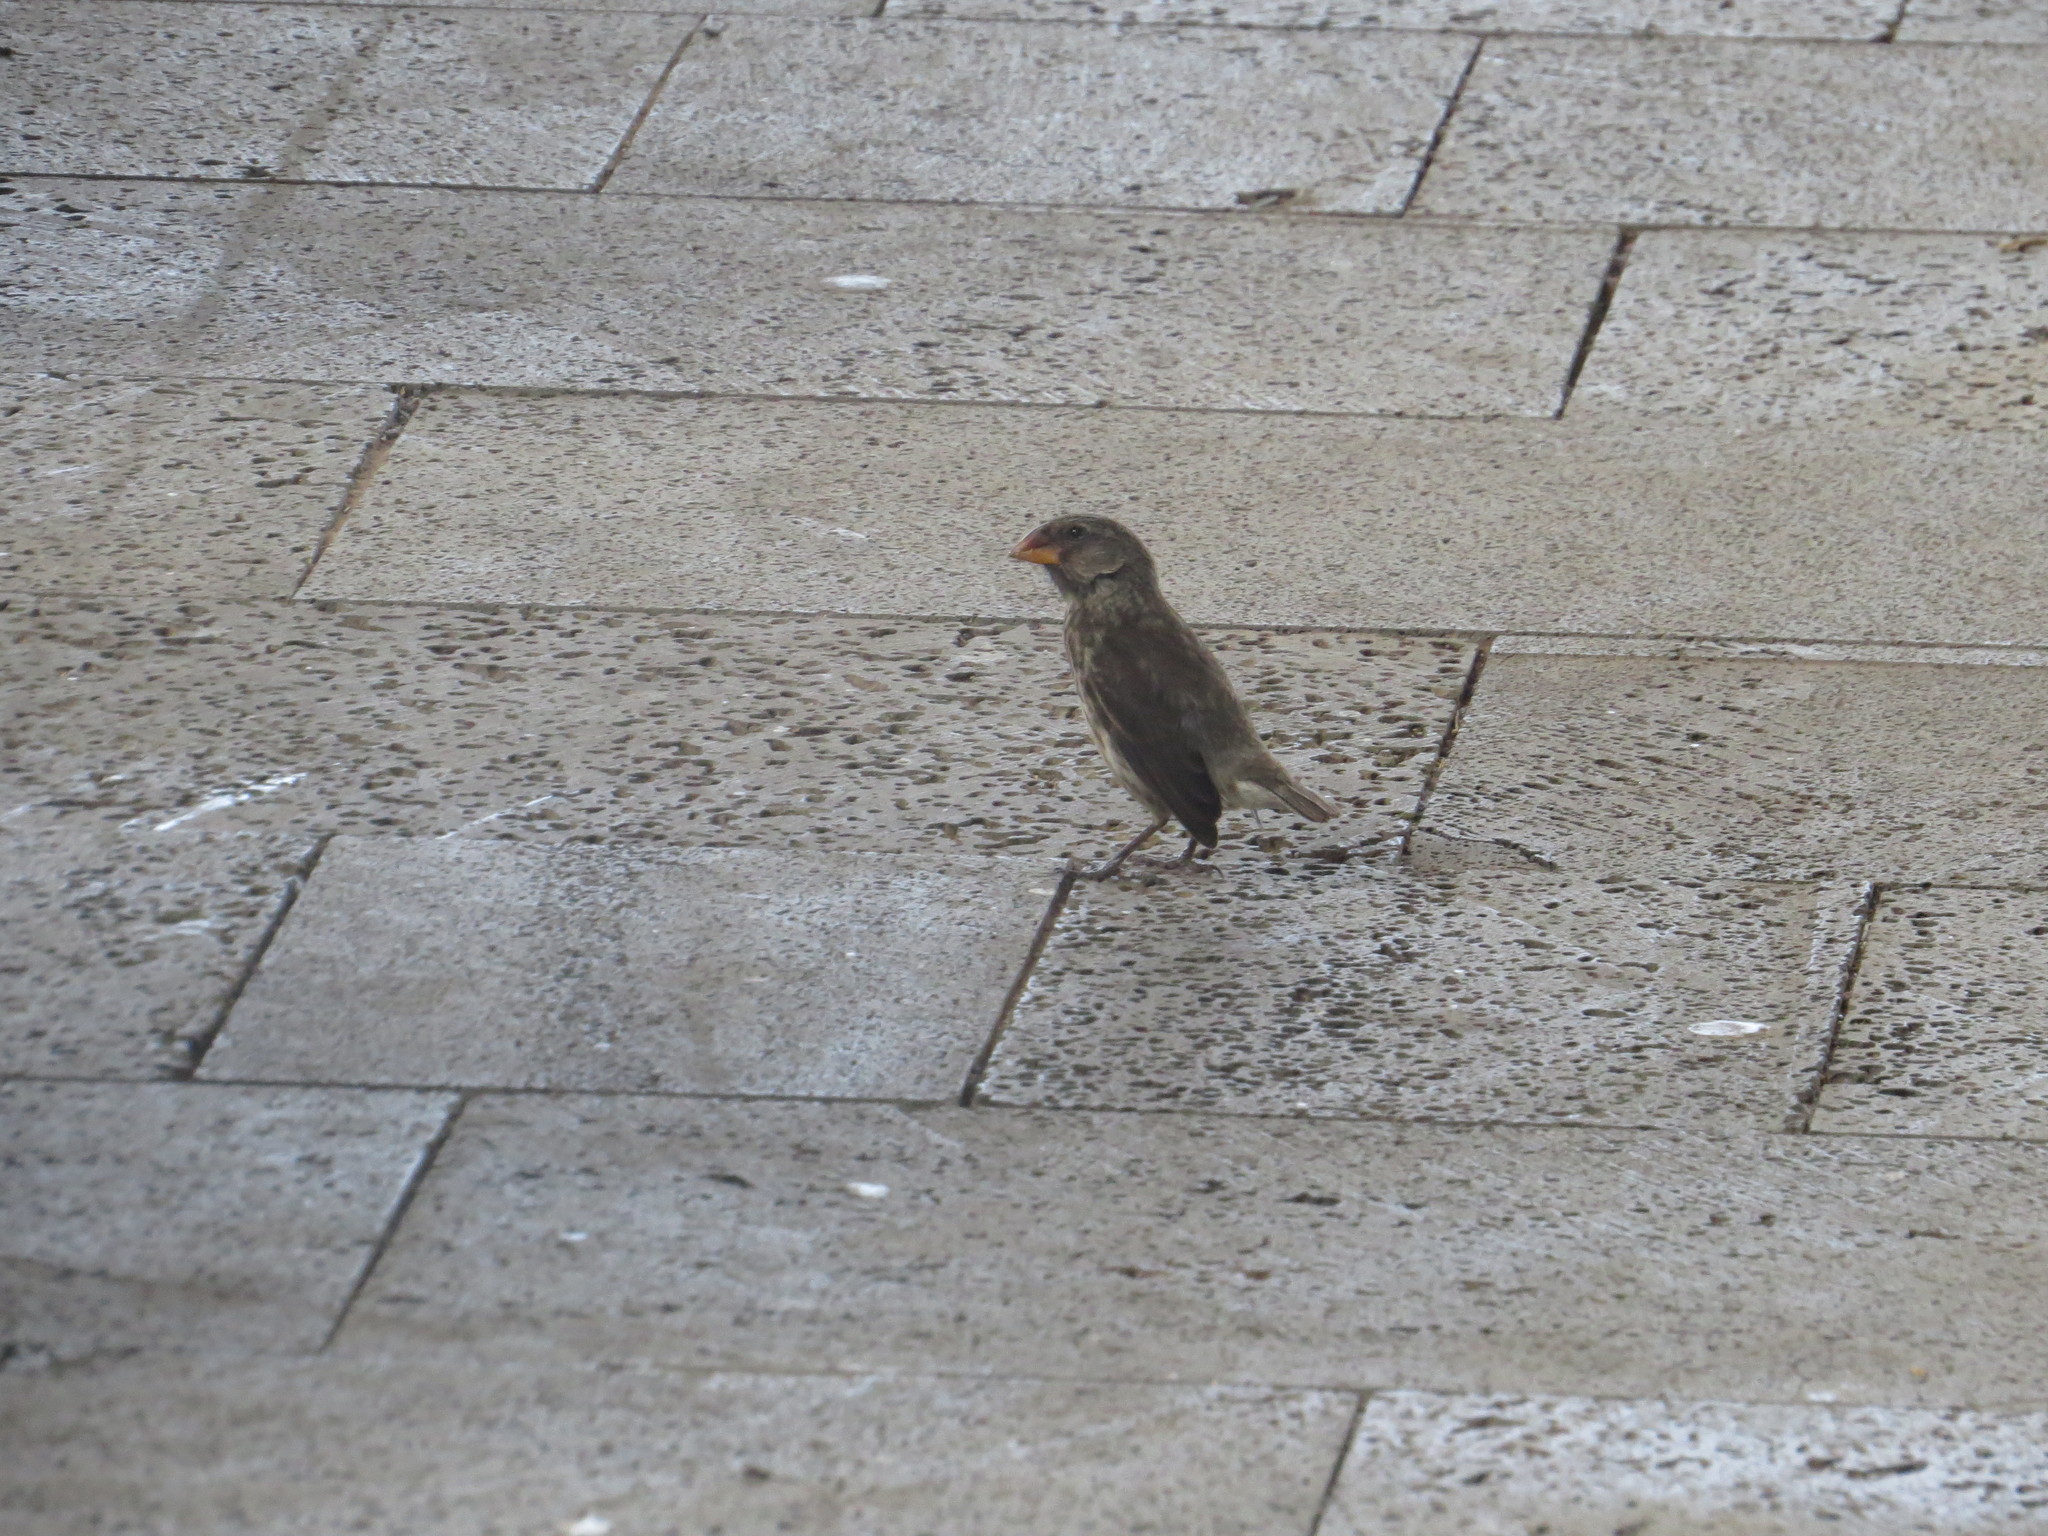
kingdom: Animalia
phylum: Chordata
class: Aves
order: Passeriformes
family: Thraupidae
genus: Geospiza
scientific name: Geospiza fortis
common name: Medium ground finch
